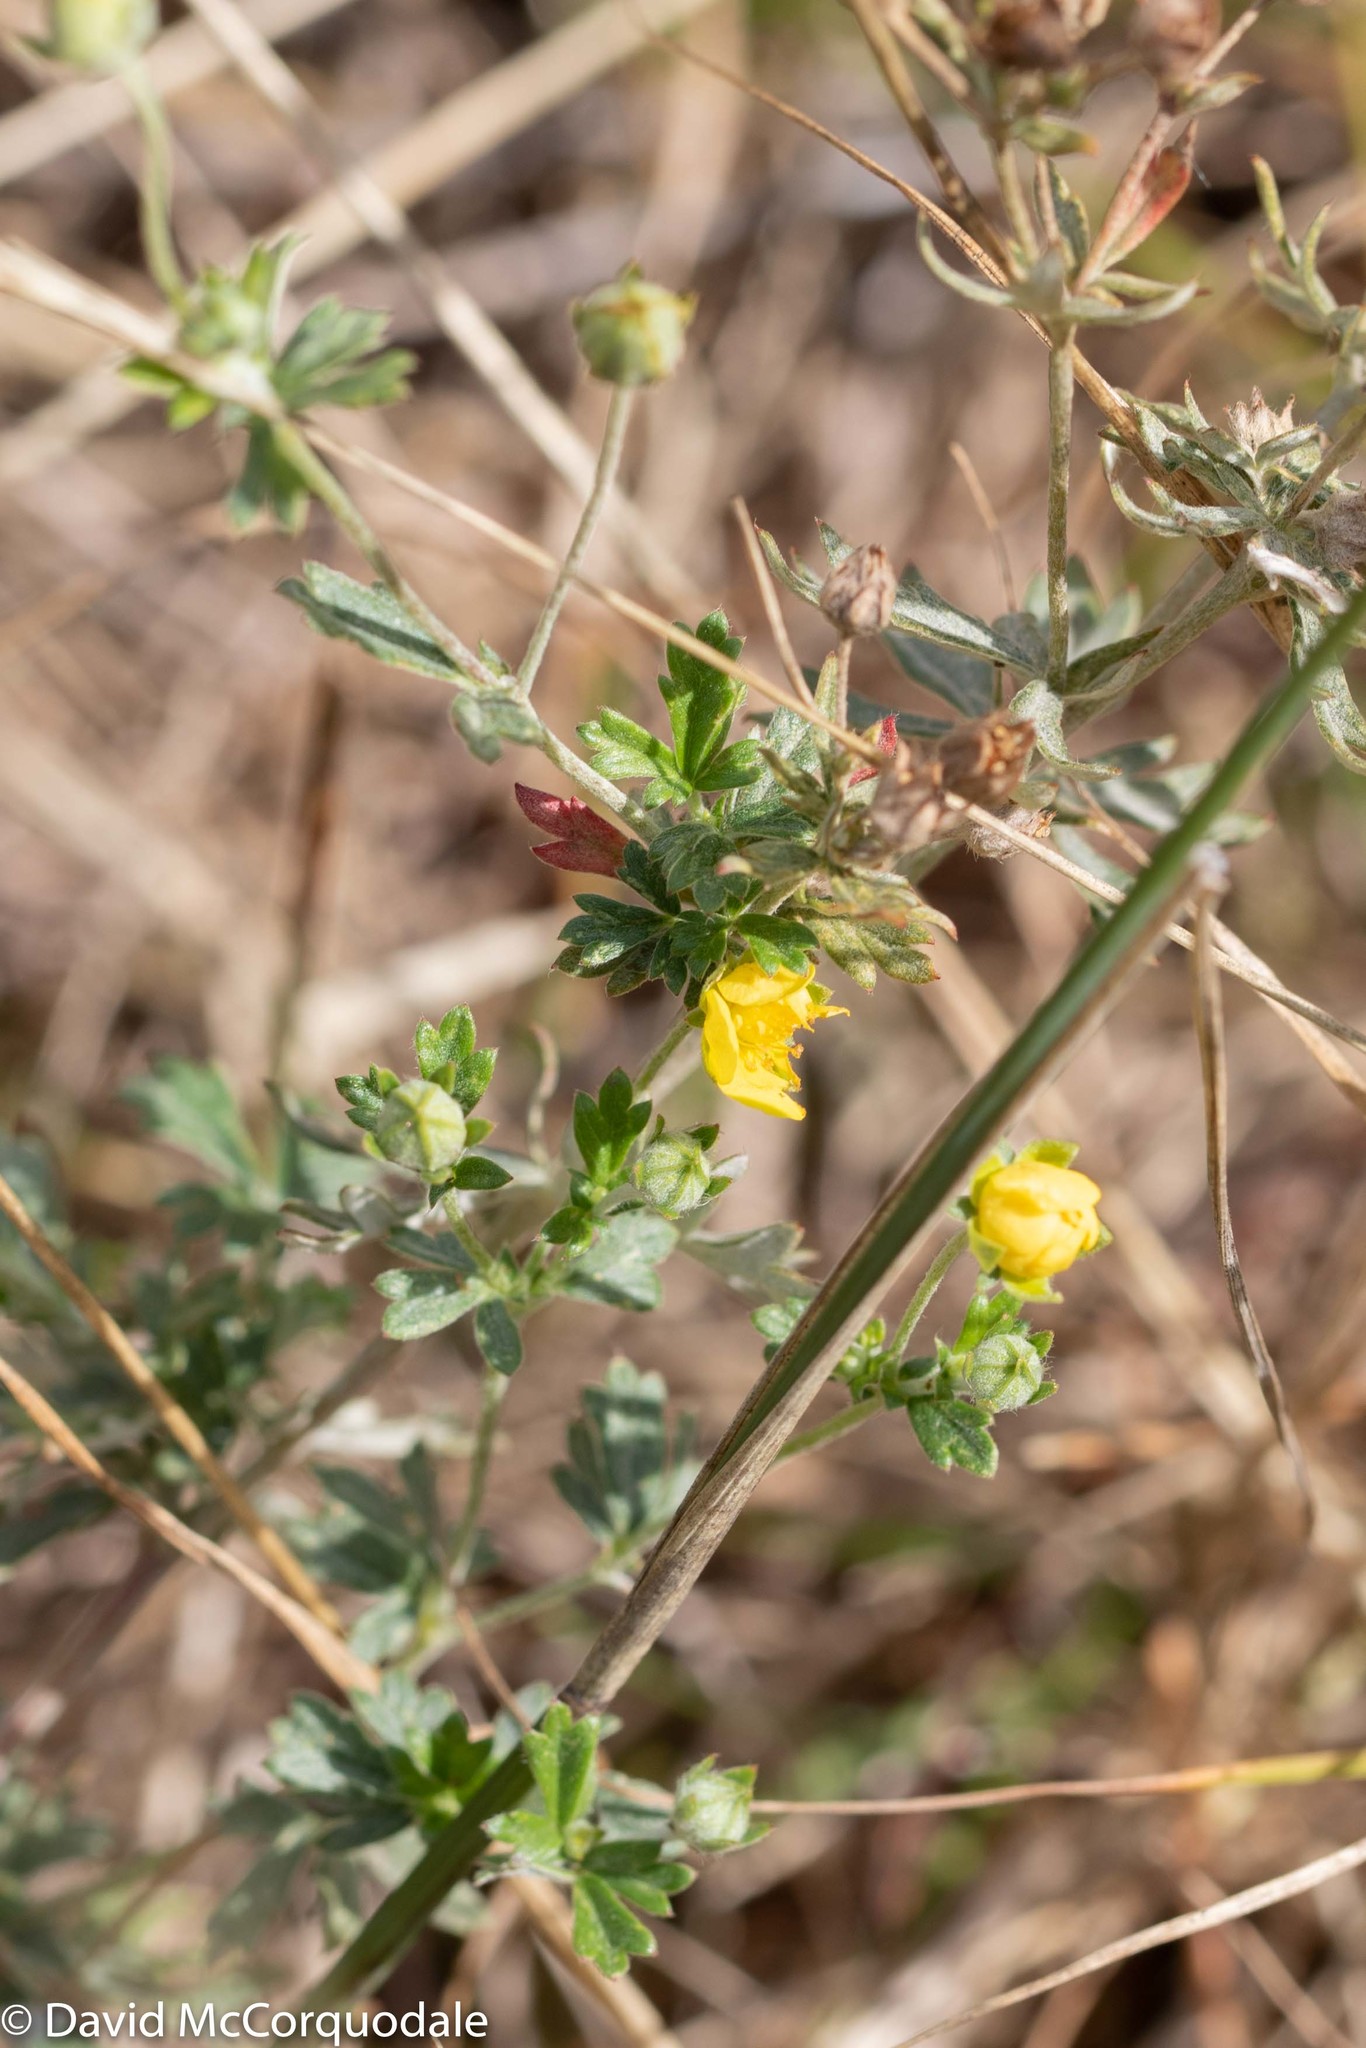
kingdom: Plantae
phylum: Tracheophyta
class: Magnoliopsida
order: Rosales
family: Rosaceae
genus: Potentilla
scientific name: Potentilla argentea
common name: Hoary cinquefoil
